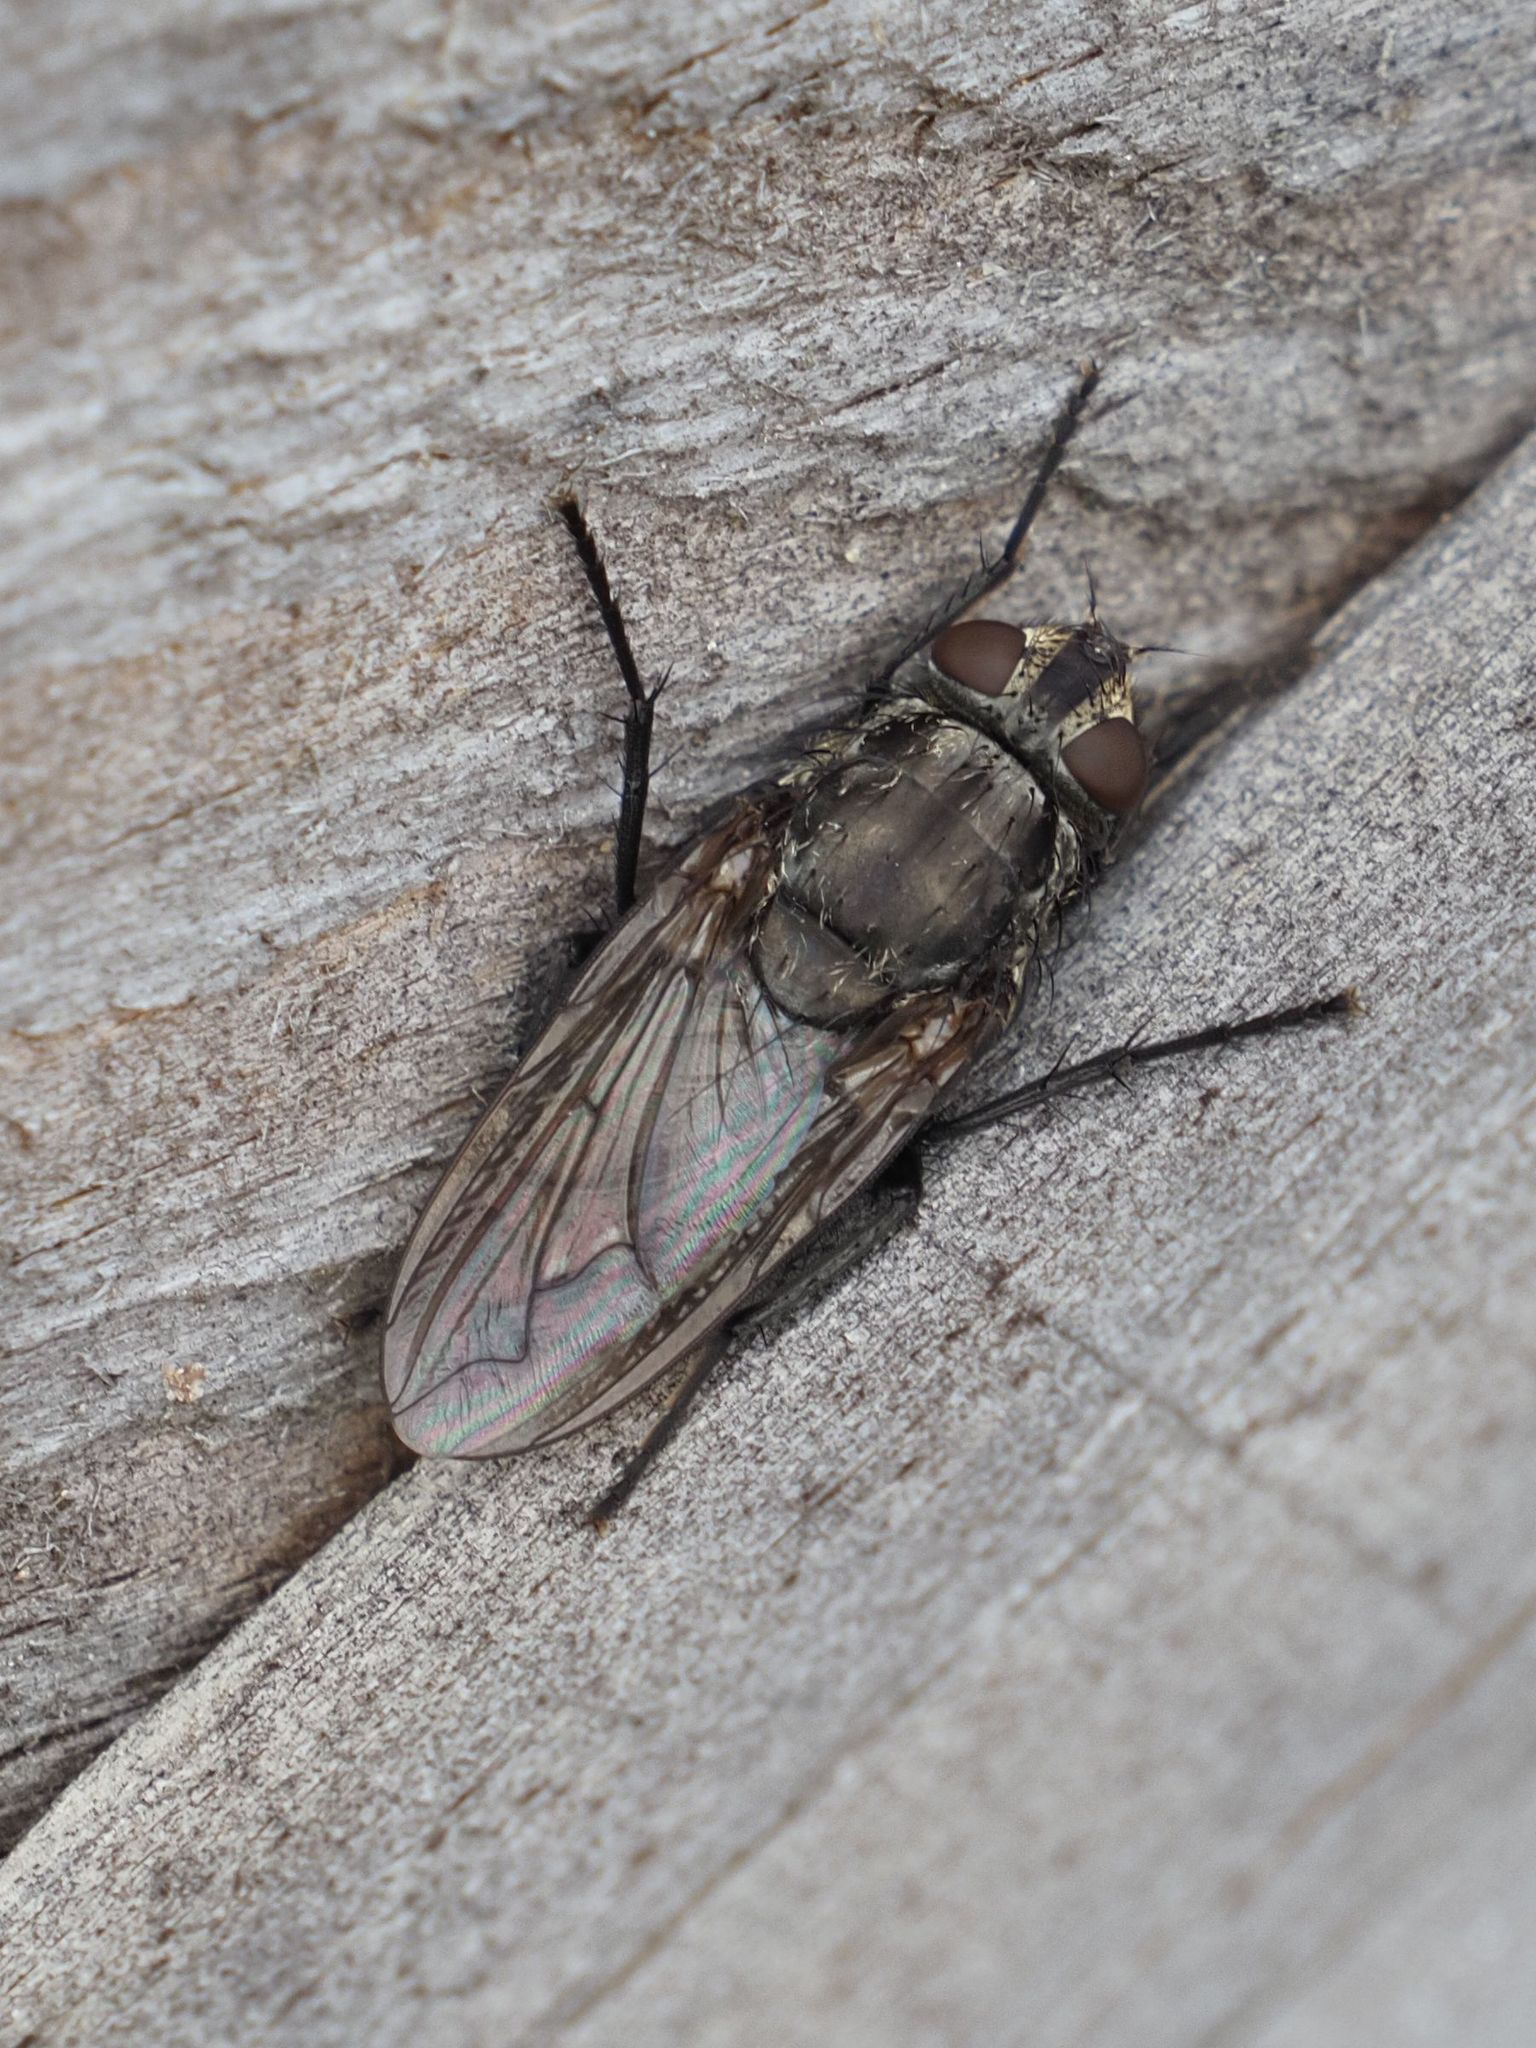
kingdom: Animalia
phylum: Arthropoda
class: Insecta
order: Diptera
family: Polleniidae
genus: Pollenia
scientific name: Pollenia vagabunda
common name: Vagabund cluster fly
